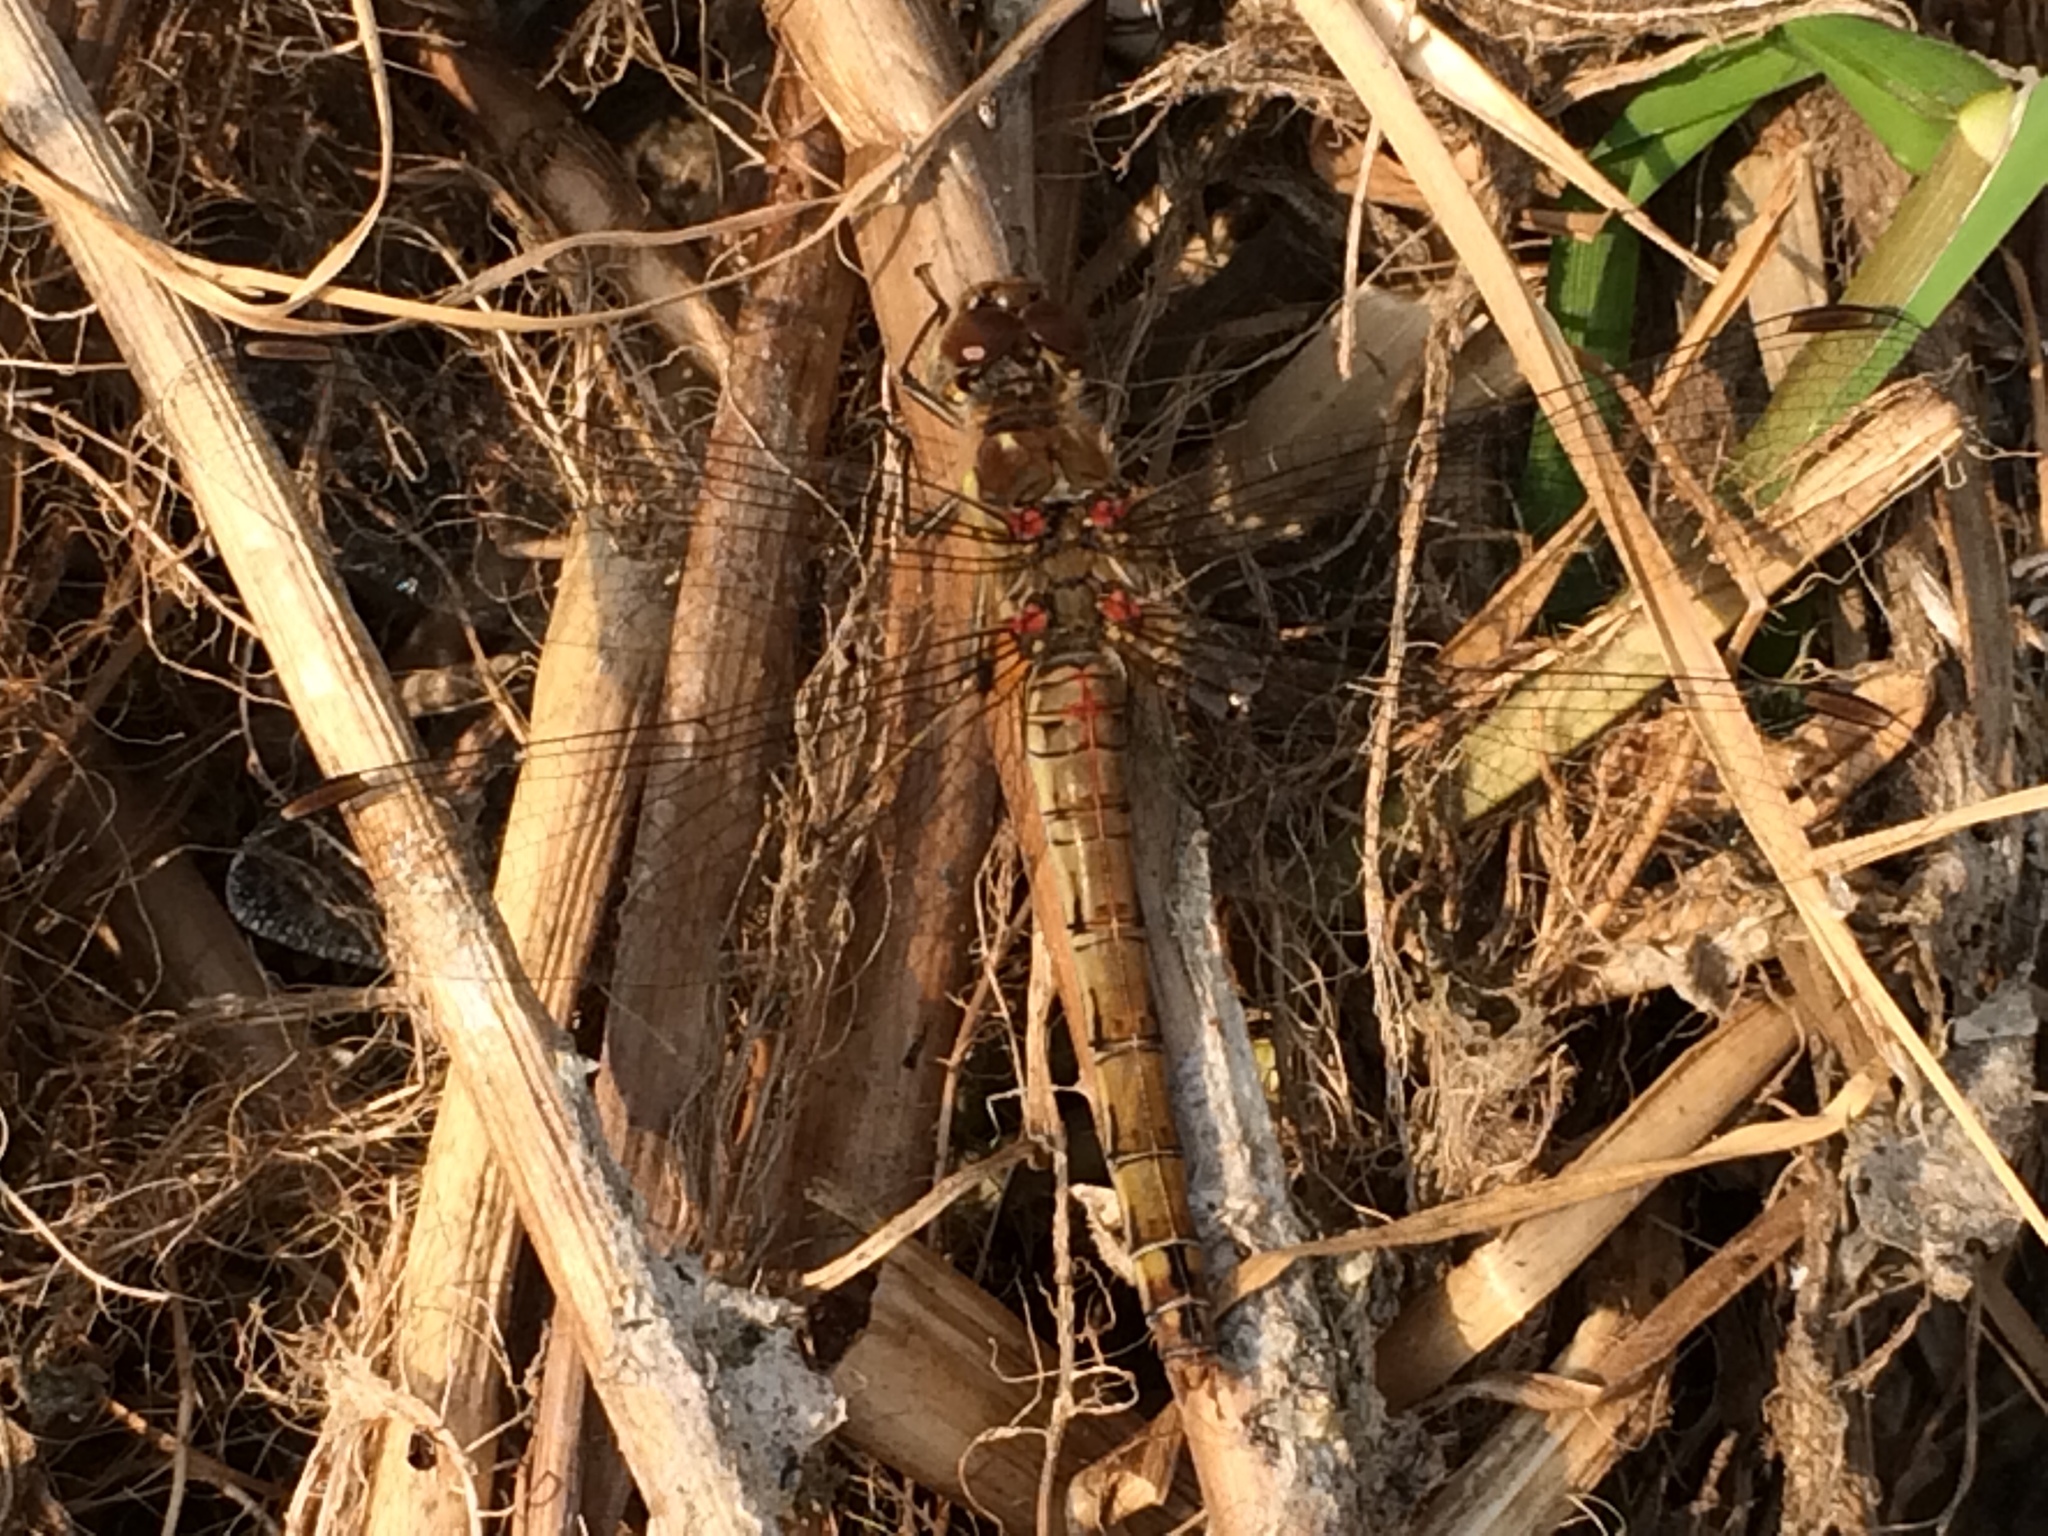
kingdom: Animalia
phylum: Arthropoda
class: Insecta
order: Odonata
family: Libellulidae
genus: Sympetrum
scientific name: Sympetrum striolatum
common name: Common darter
